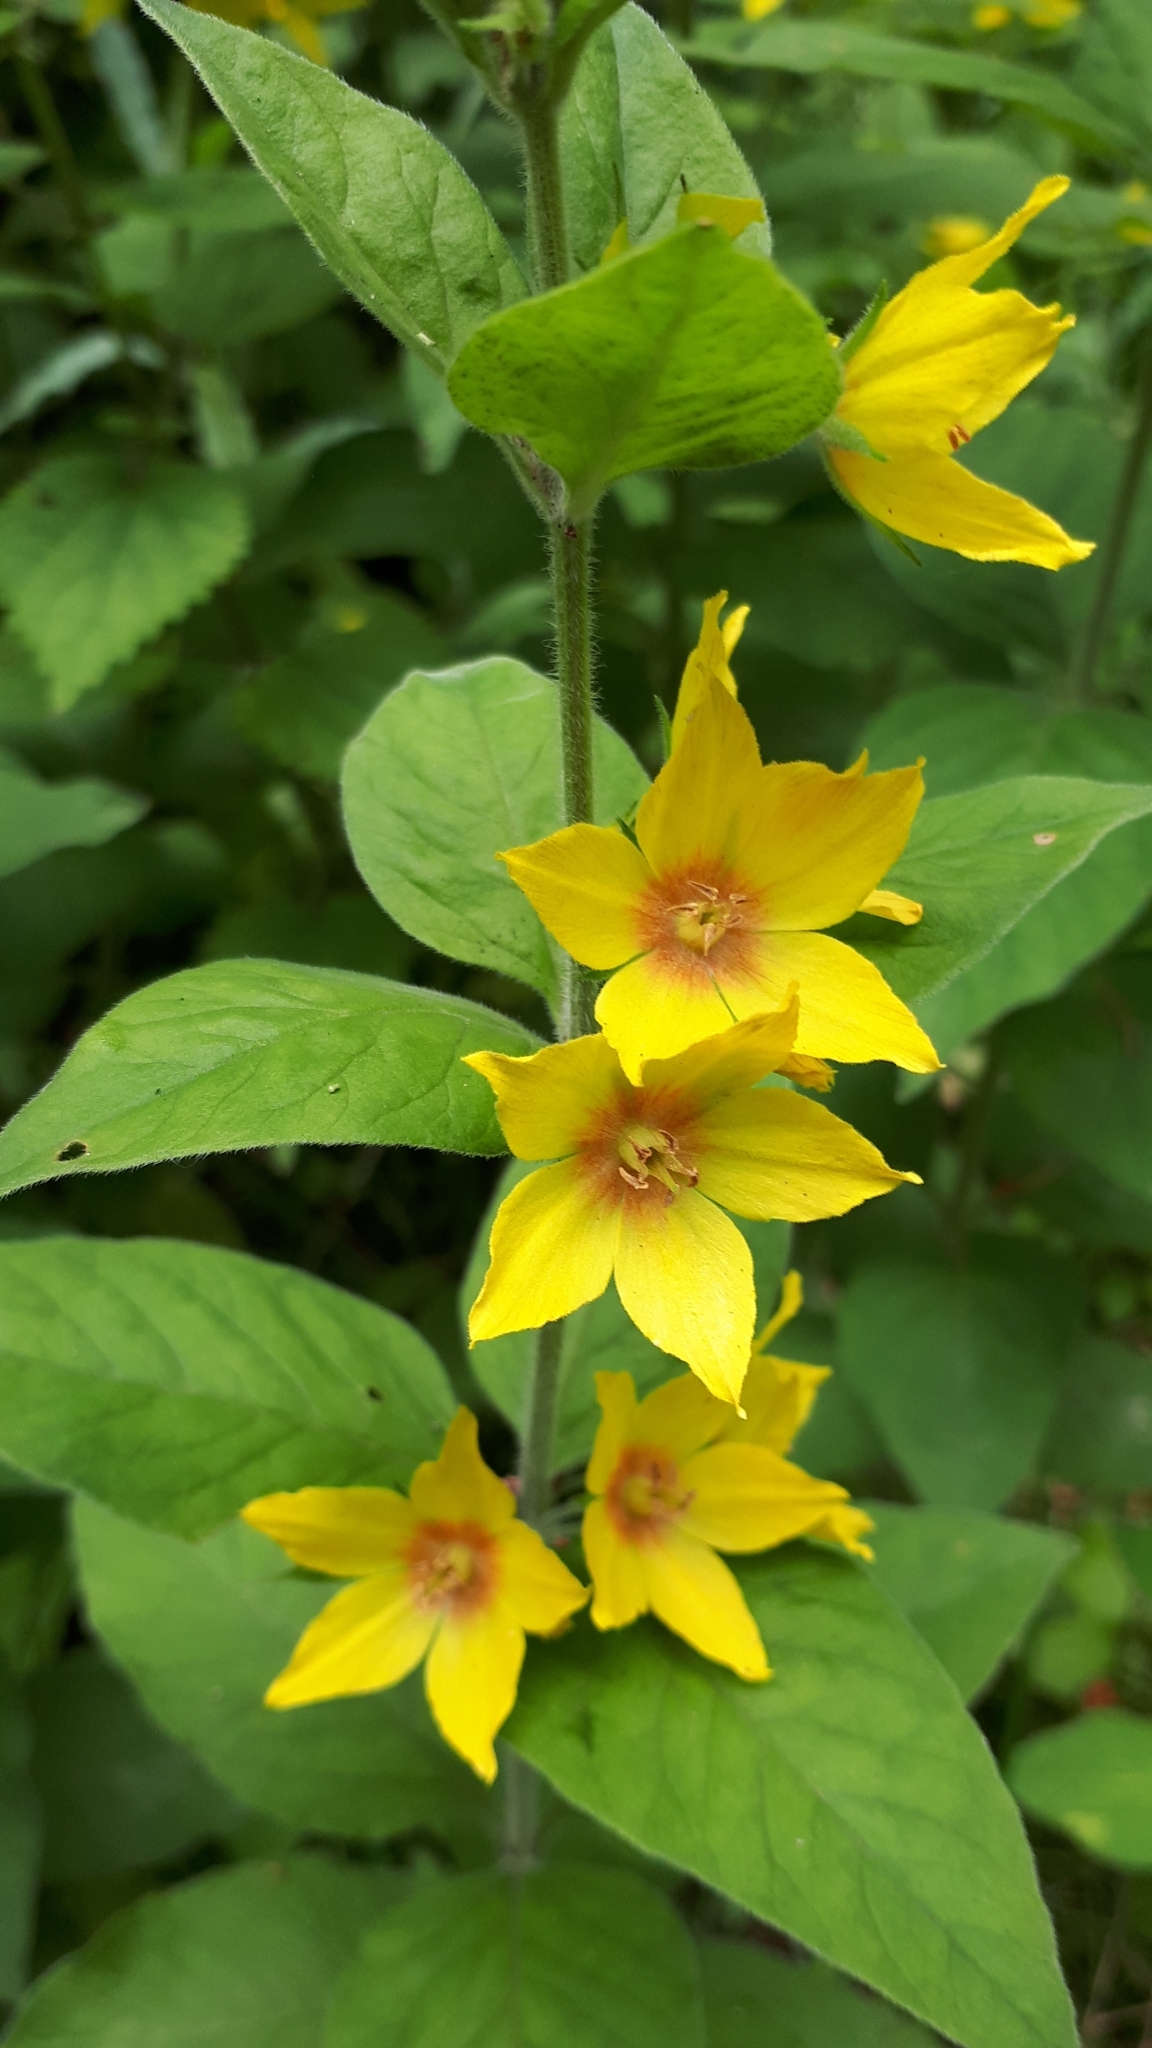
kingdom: Plantae
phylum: Tracheophyta
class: Magnoliopsida
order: Ericales
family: Primulaceae
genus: Lysimachia
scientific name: Lysimachia punctata
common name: Dotted loosestrife
